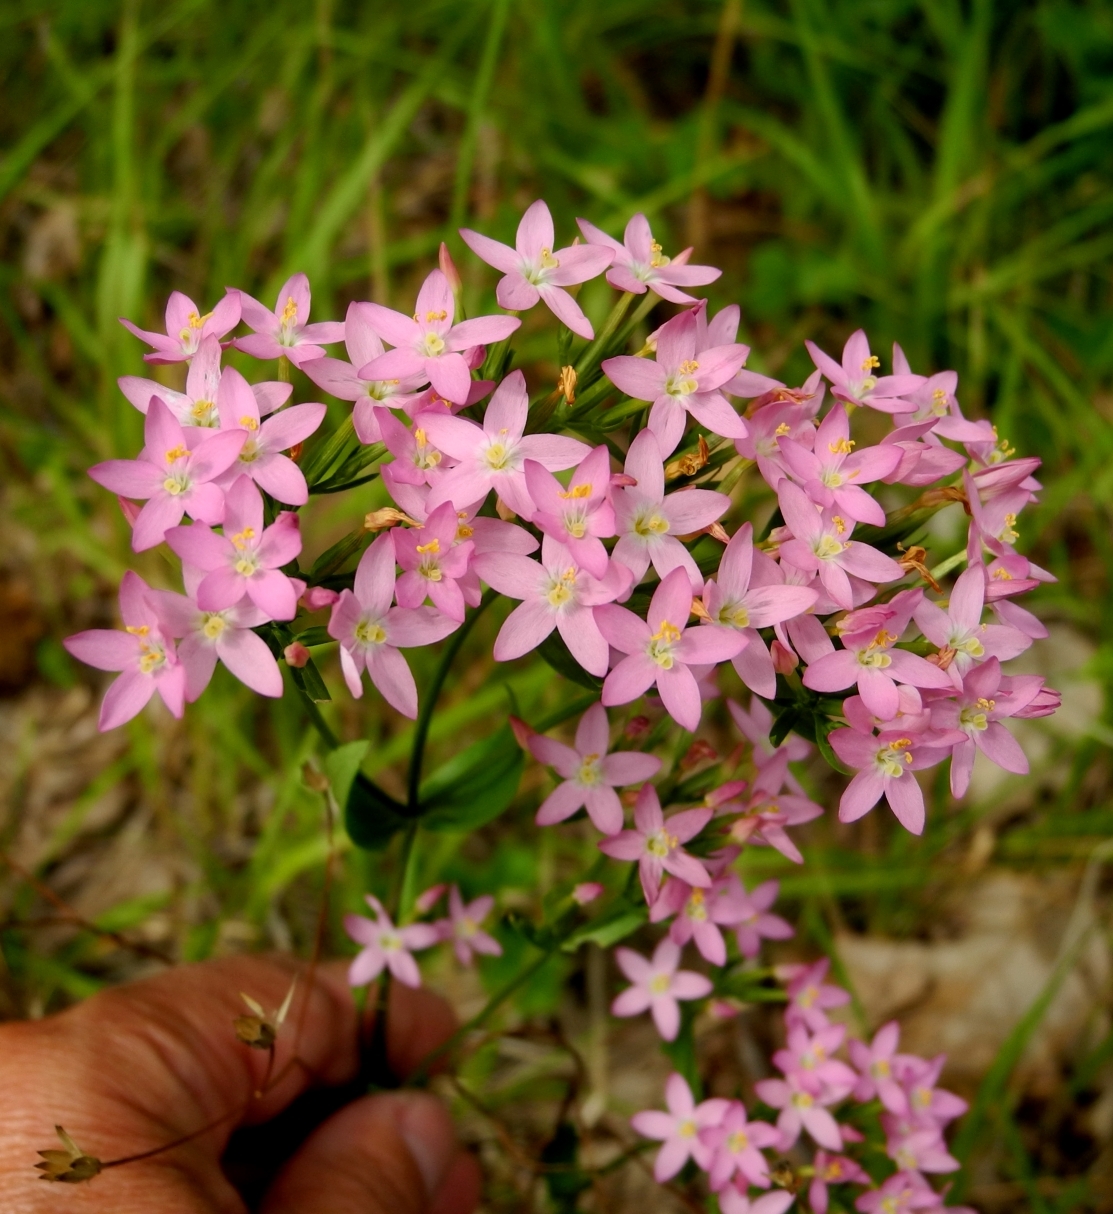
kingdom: Plantae
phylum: Tracheophyta
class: Magnoliopsida
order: Gentianales
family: Gentianaceae
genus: Centaurium
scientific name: Centaurium erythraea
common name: Common centaury
